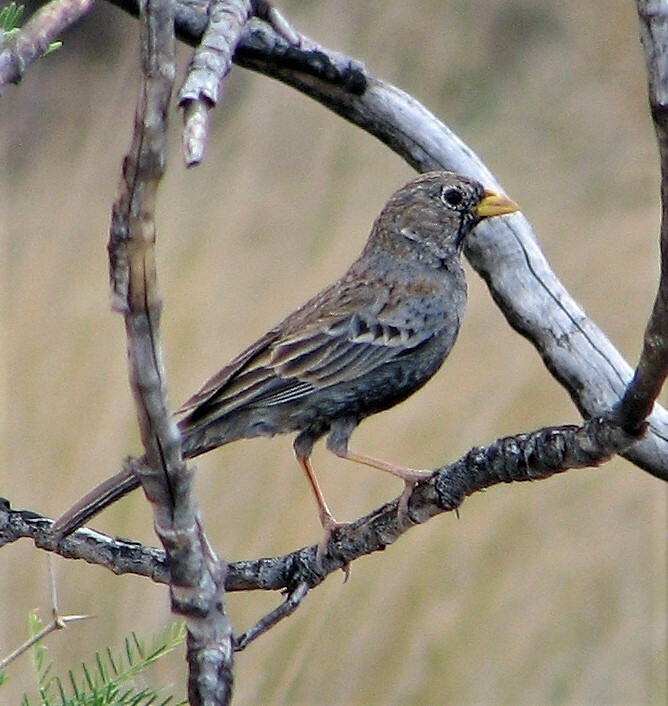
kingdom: Animalia
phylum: Chordata
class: Aves
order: Passeriformes
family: Thraupidae
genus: Porphyrospiza
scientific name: Porphyrospiza carbonaria
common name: Carbon finch
